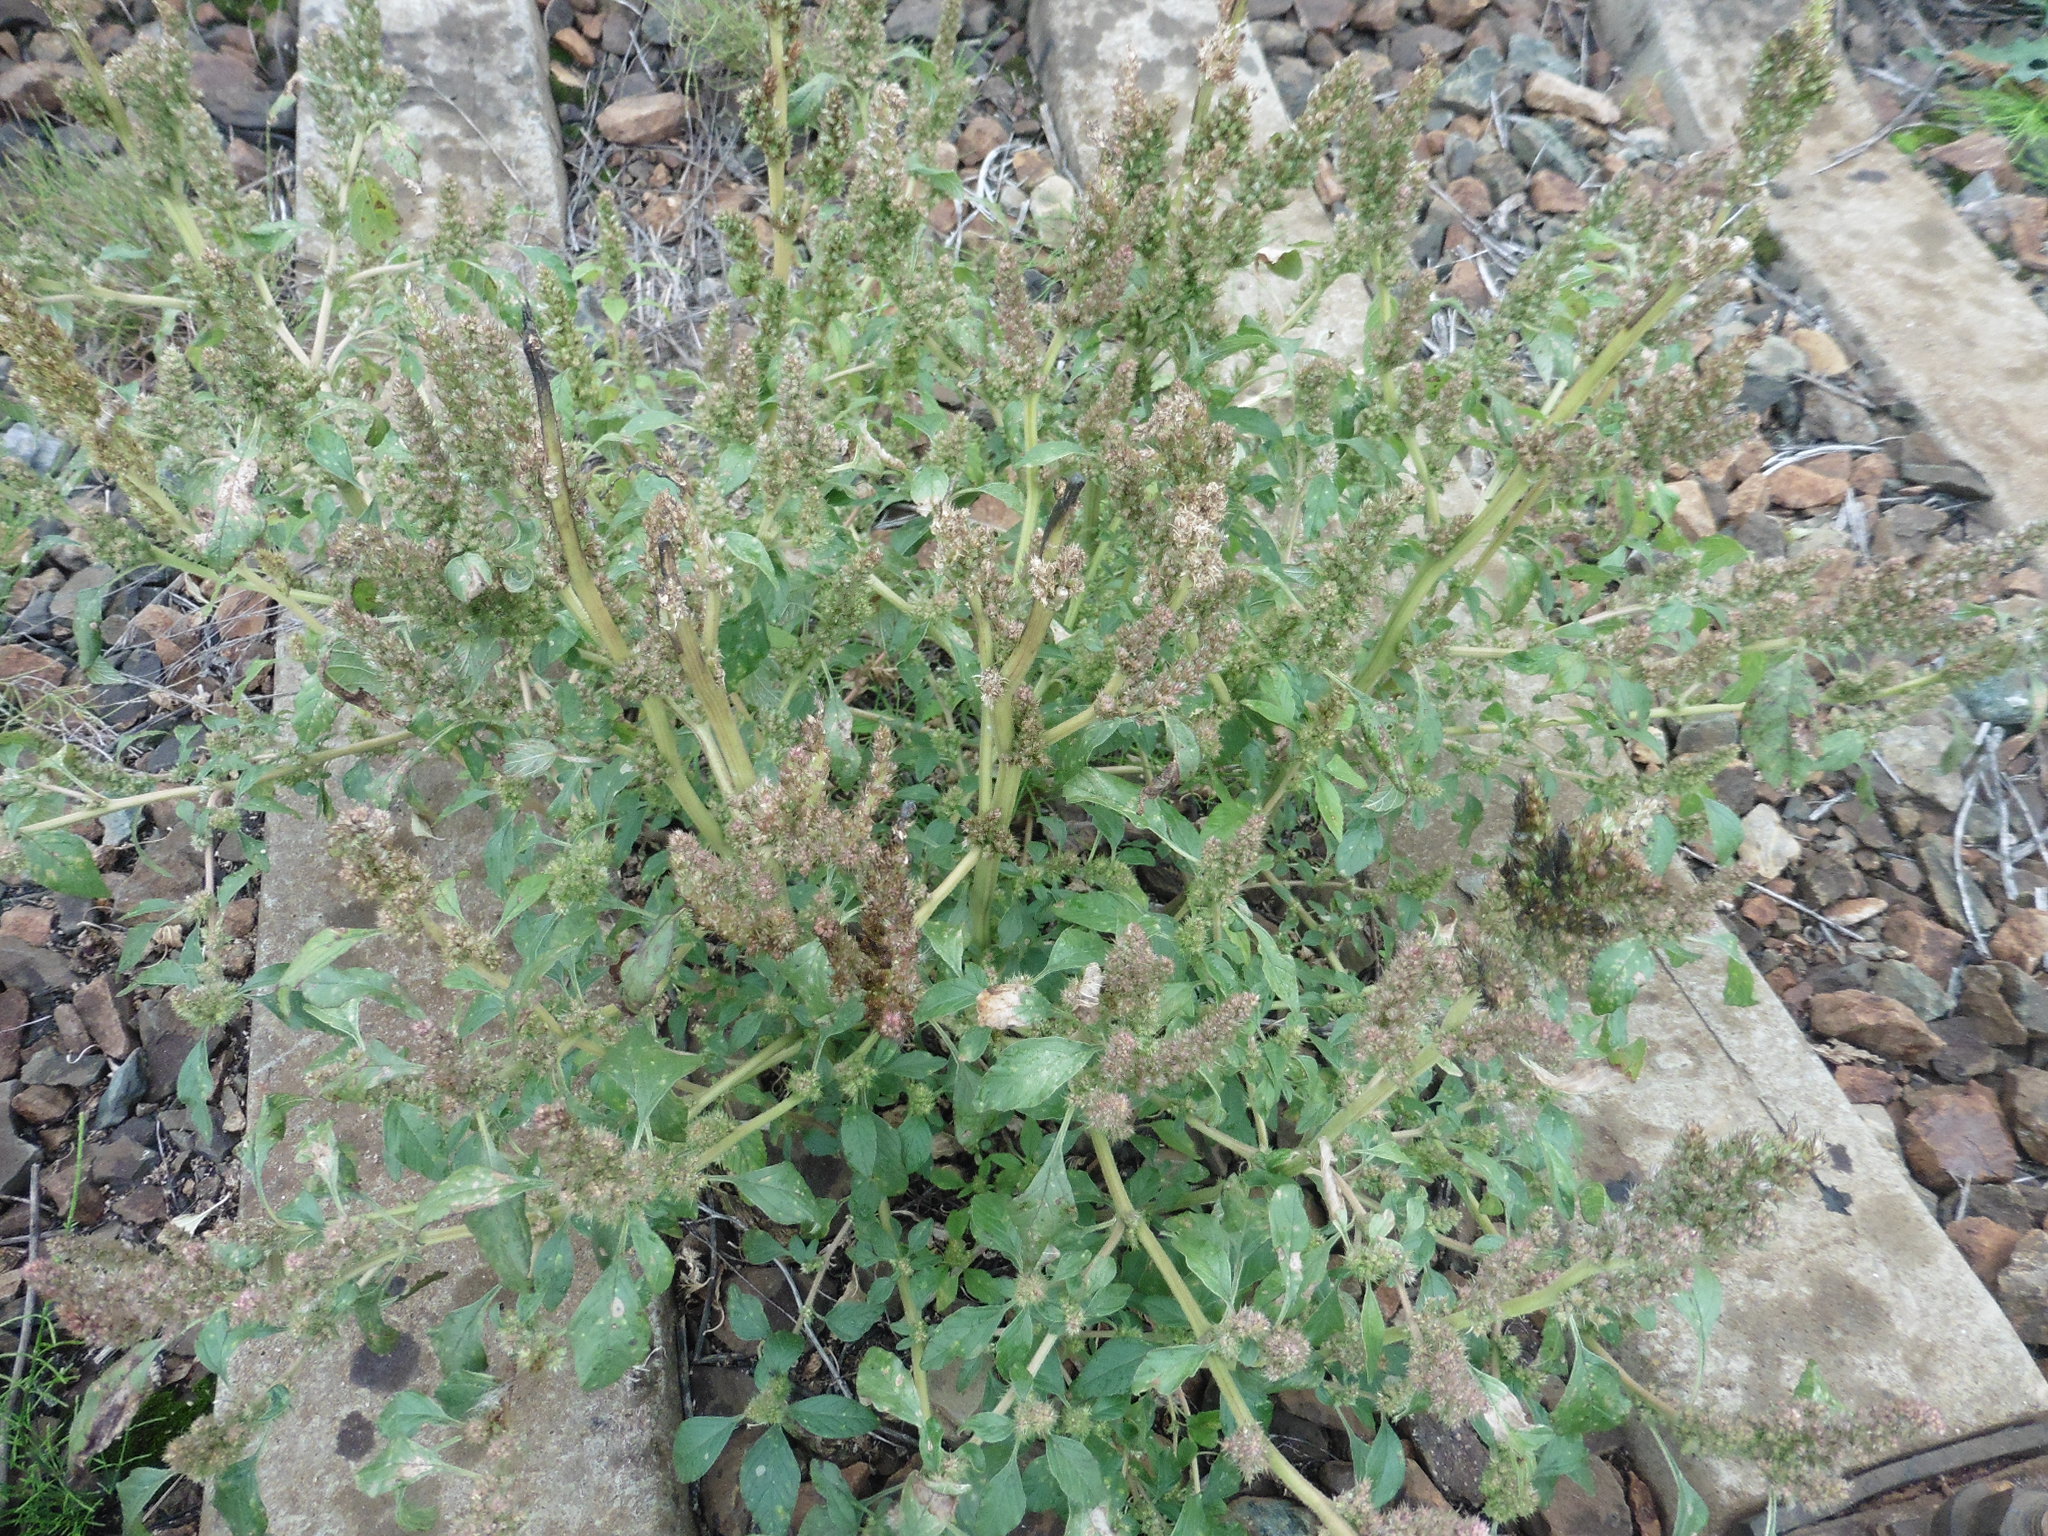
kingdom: Plantae
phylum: Tracheophyta
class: Magnoliopsida
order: Caryophyllales
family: Amaranthaceae
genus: Amaranthus
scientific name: Amaranthus retroflexus
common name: Redroot amaranth
